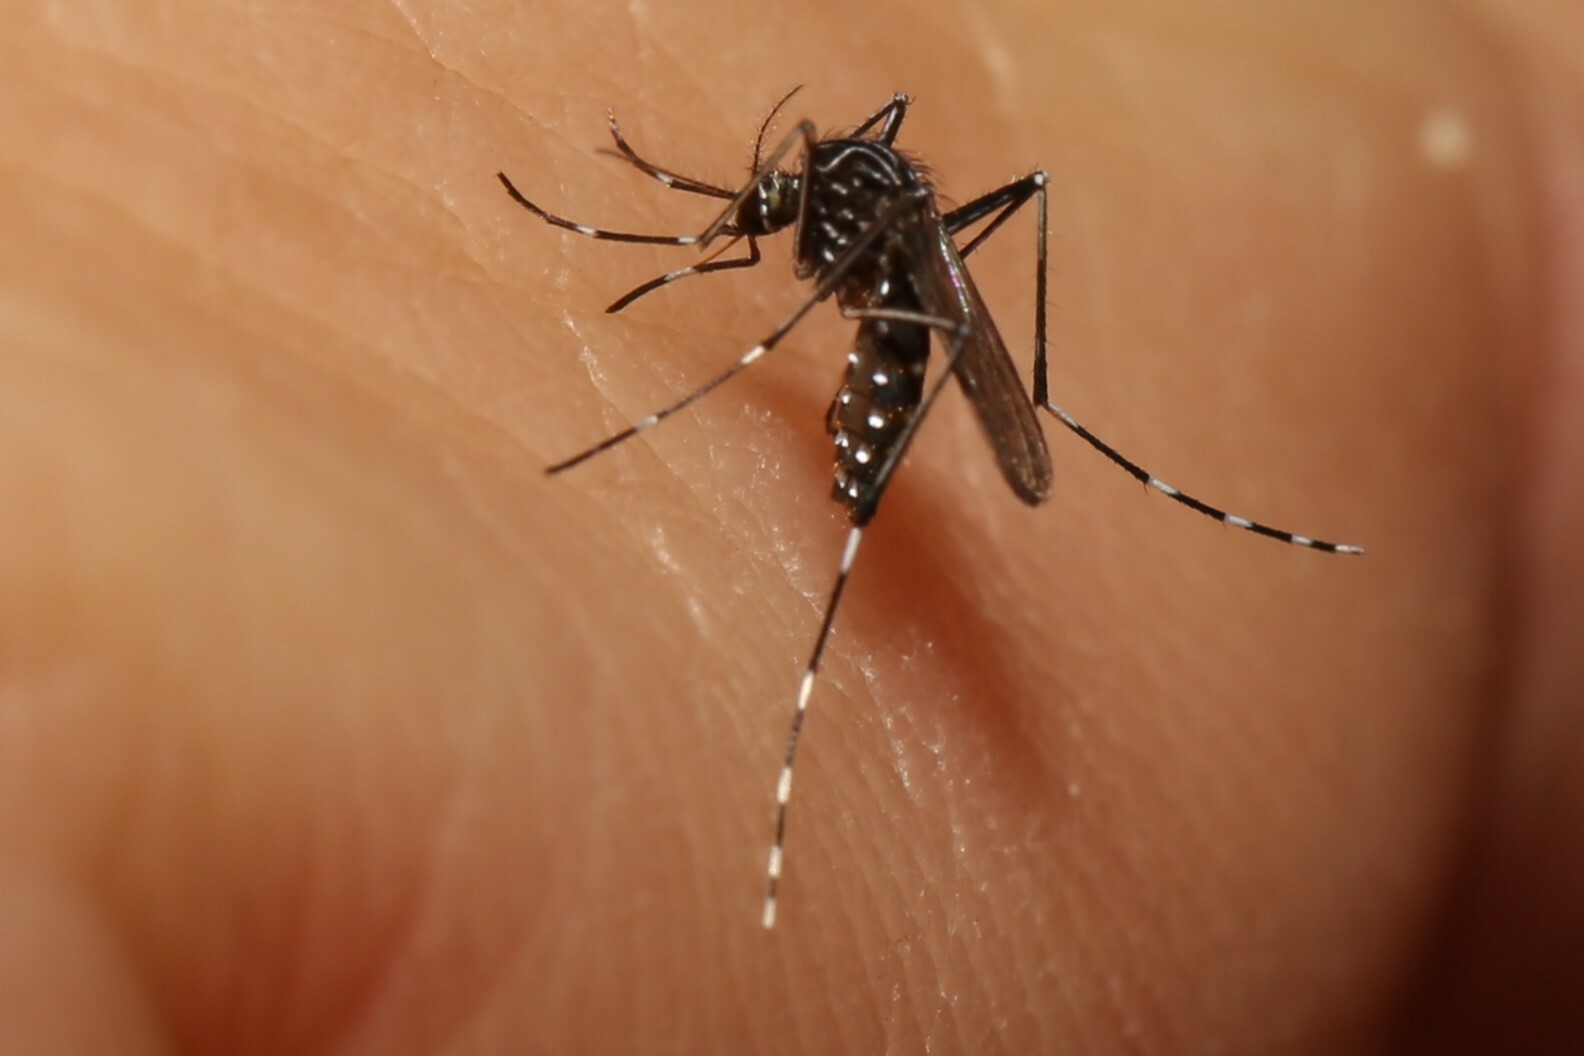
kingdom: Animalia
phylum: Arthropoda
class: Insecta
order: Diptera
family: Culicidae
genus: Aedes
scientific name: Aedes notoscriptus
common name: Australian backyard mosquito
